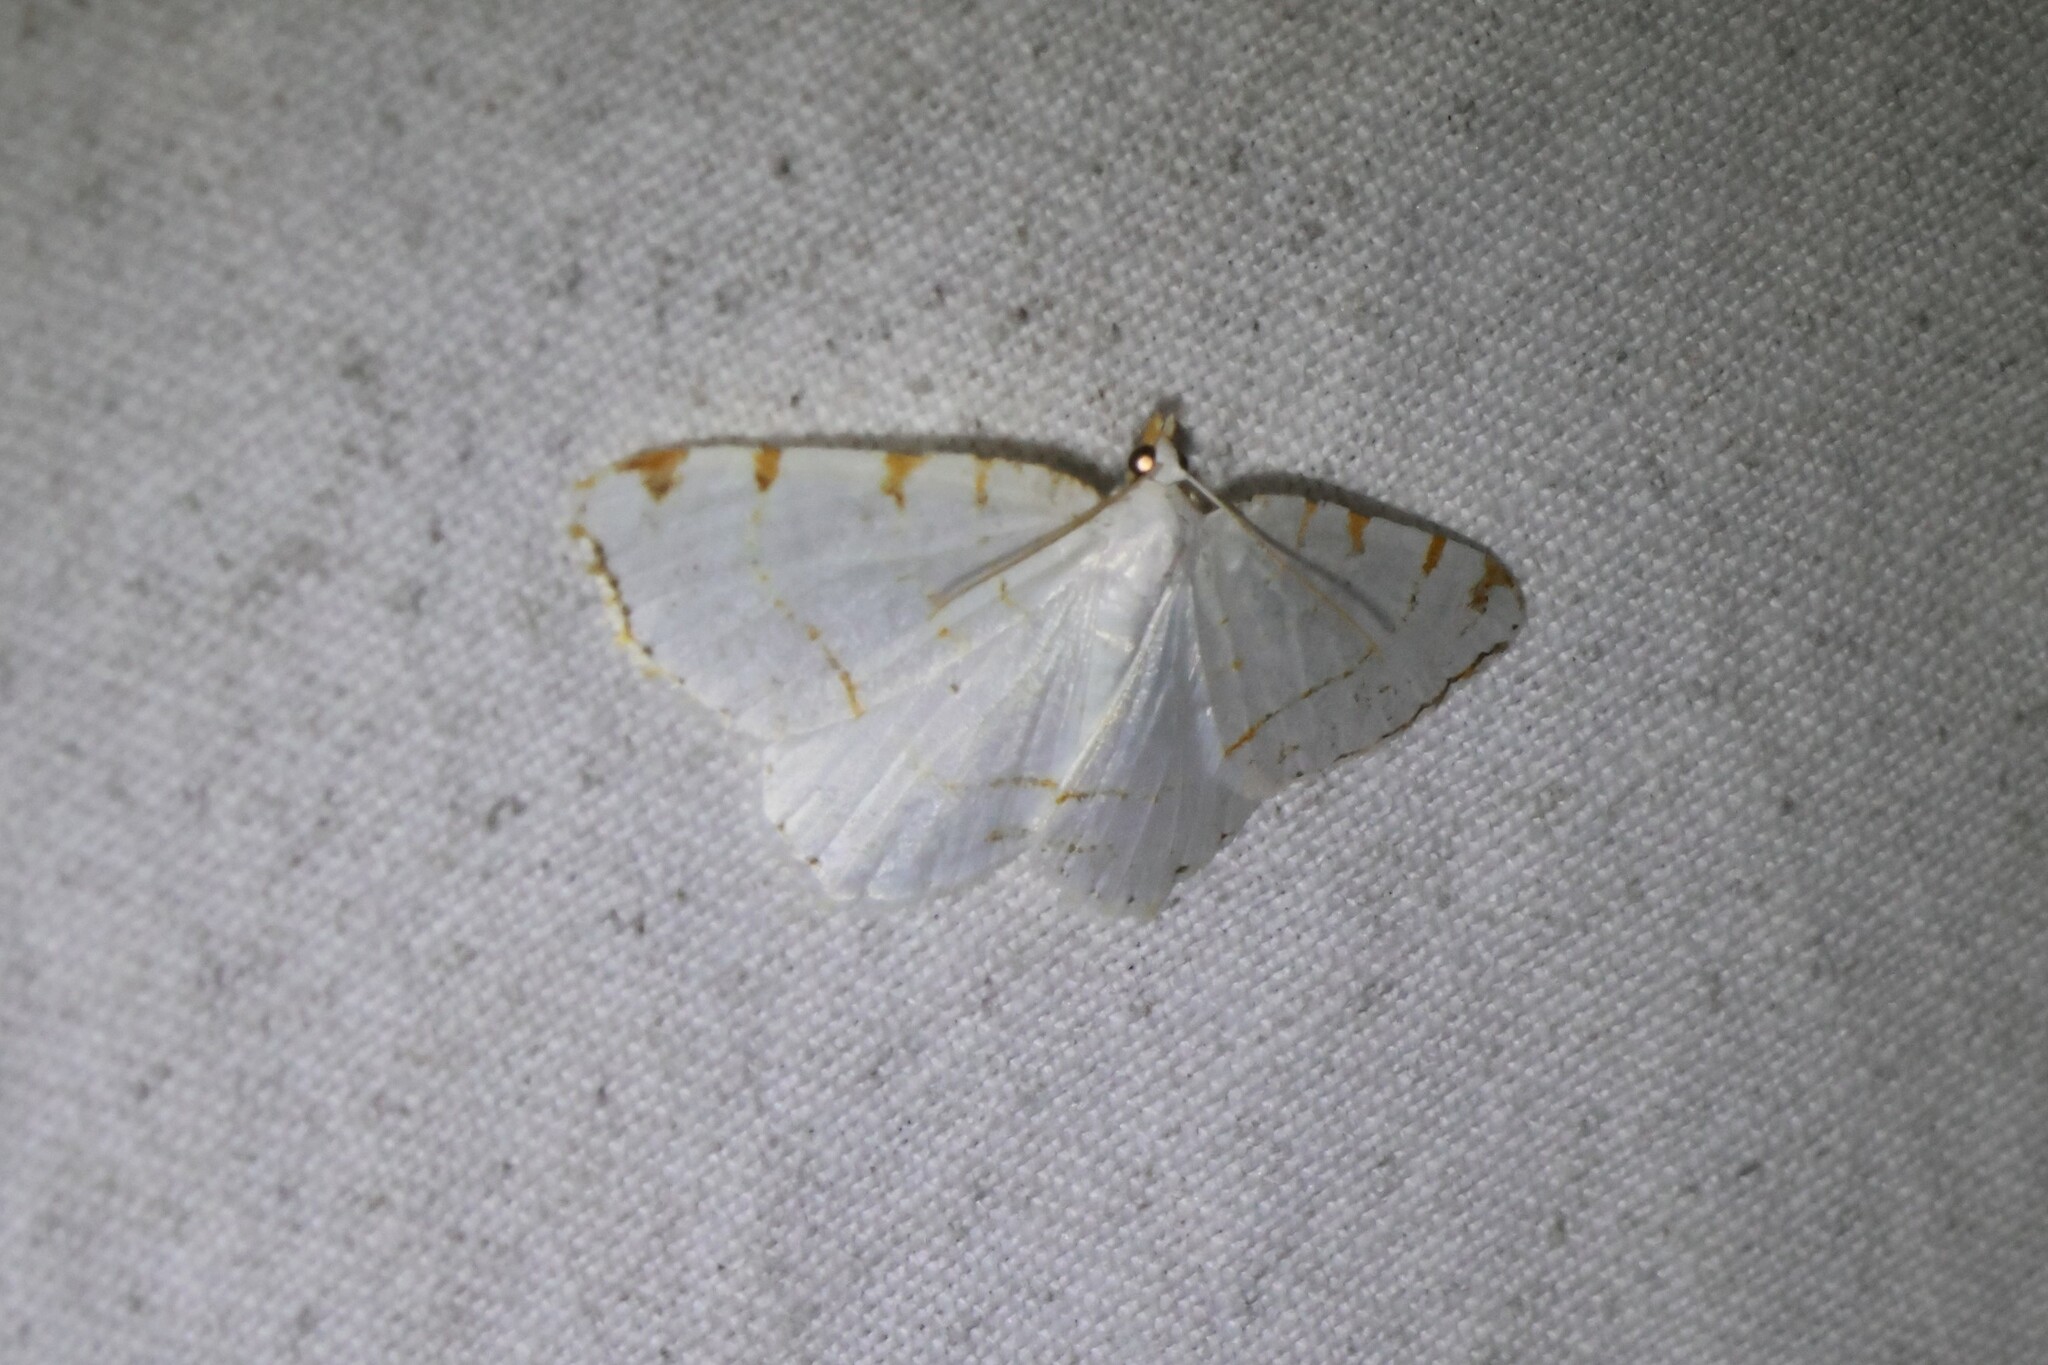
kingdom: Animalia
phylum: Arthropoda
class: Insecta
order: Lepidoptera
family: Geometridae
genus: Macaria
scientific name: Macaria pustularia
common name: Lesser maple spanworm moth
